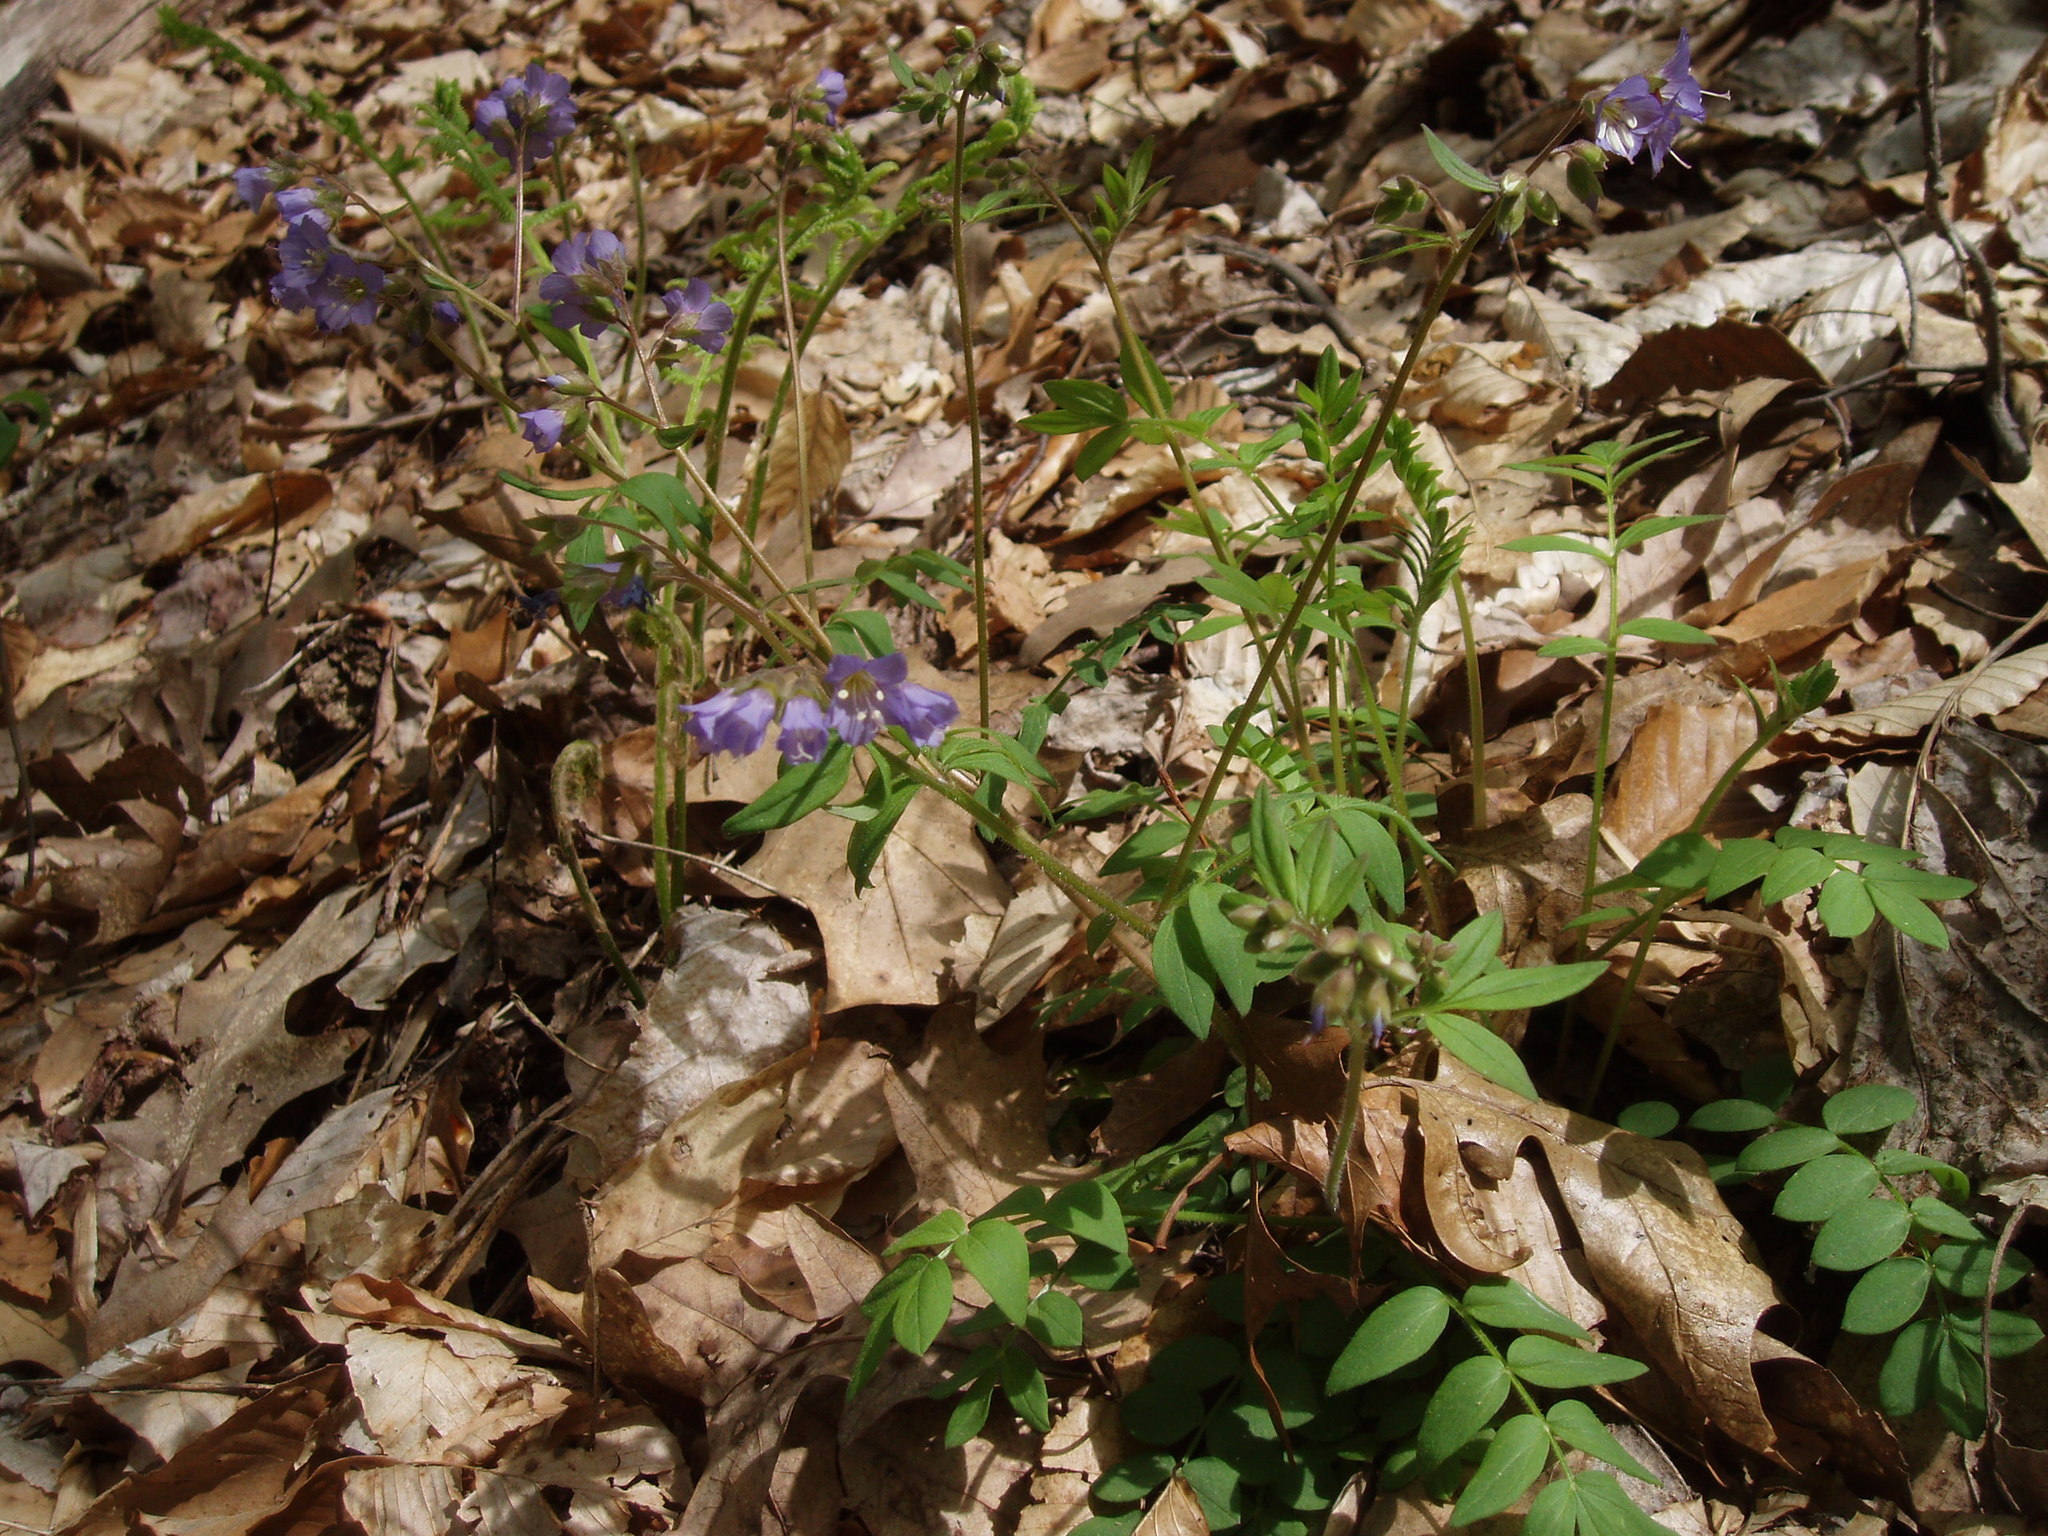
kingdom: Plantae
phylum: Tracheophyta
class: Magnoliopsida
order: Ericales
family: Polemoniaceae
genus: Polemonium
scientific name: Polemonium reptans
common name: Creeping jacob's-ladder
